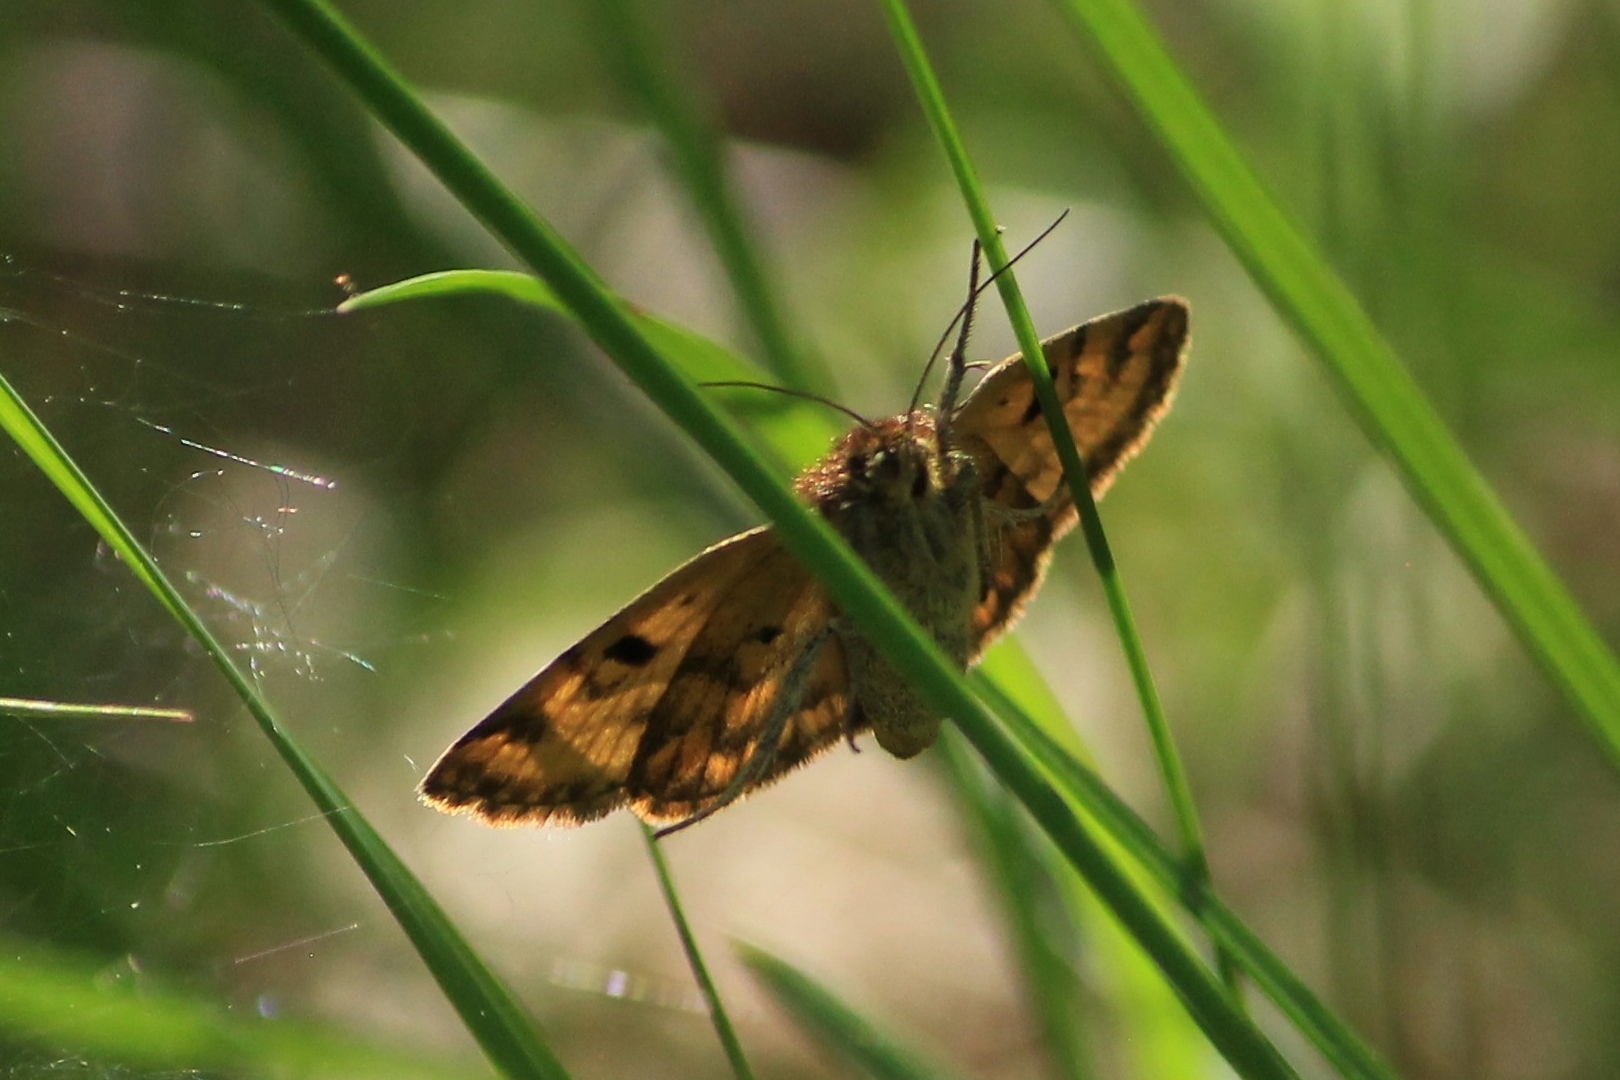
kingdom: Animalia
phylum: Arthropoda
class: Insecta
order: Lepidoptera
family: Erebidae
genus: Euclidia
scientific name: Euclidia glyphica
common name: Burnet companion
